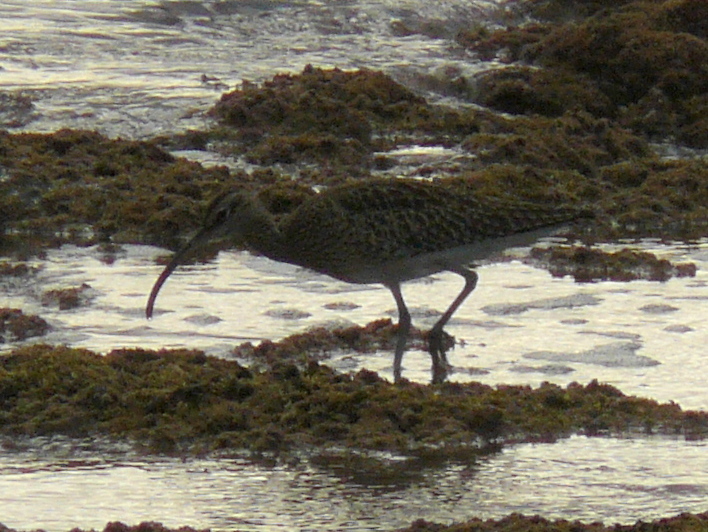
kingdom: Animalia
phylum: Chordata
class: Aves
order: Charadriiformes
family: Scolopacidae
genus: Numenius
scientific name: Numenius phaeopus
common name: Whimbrel
